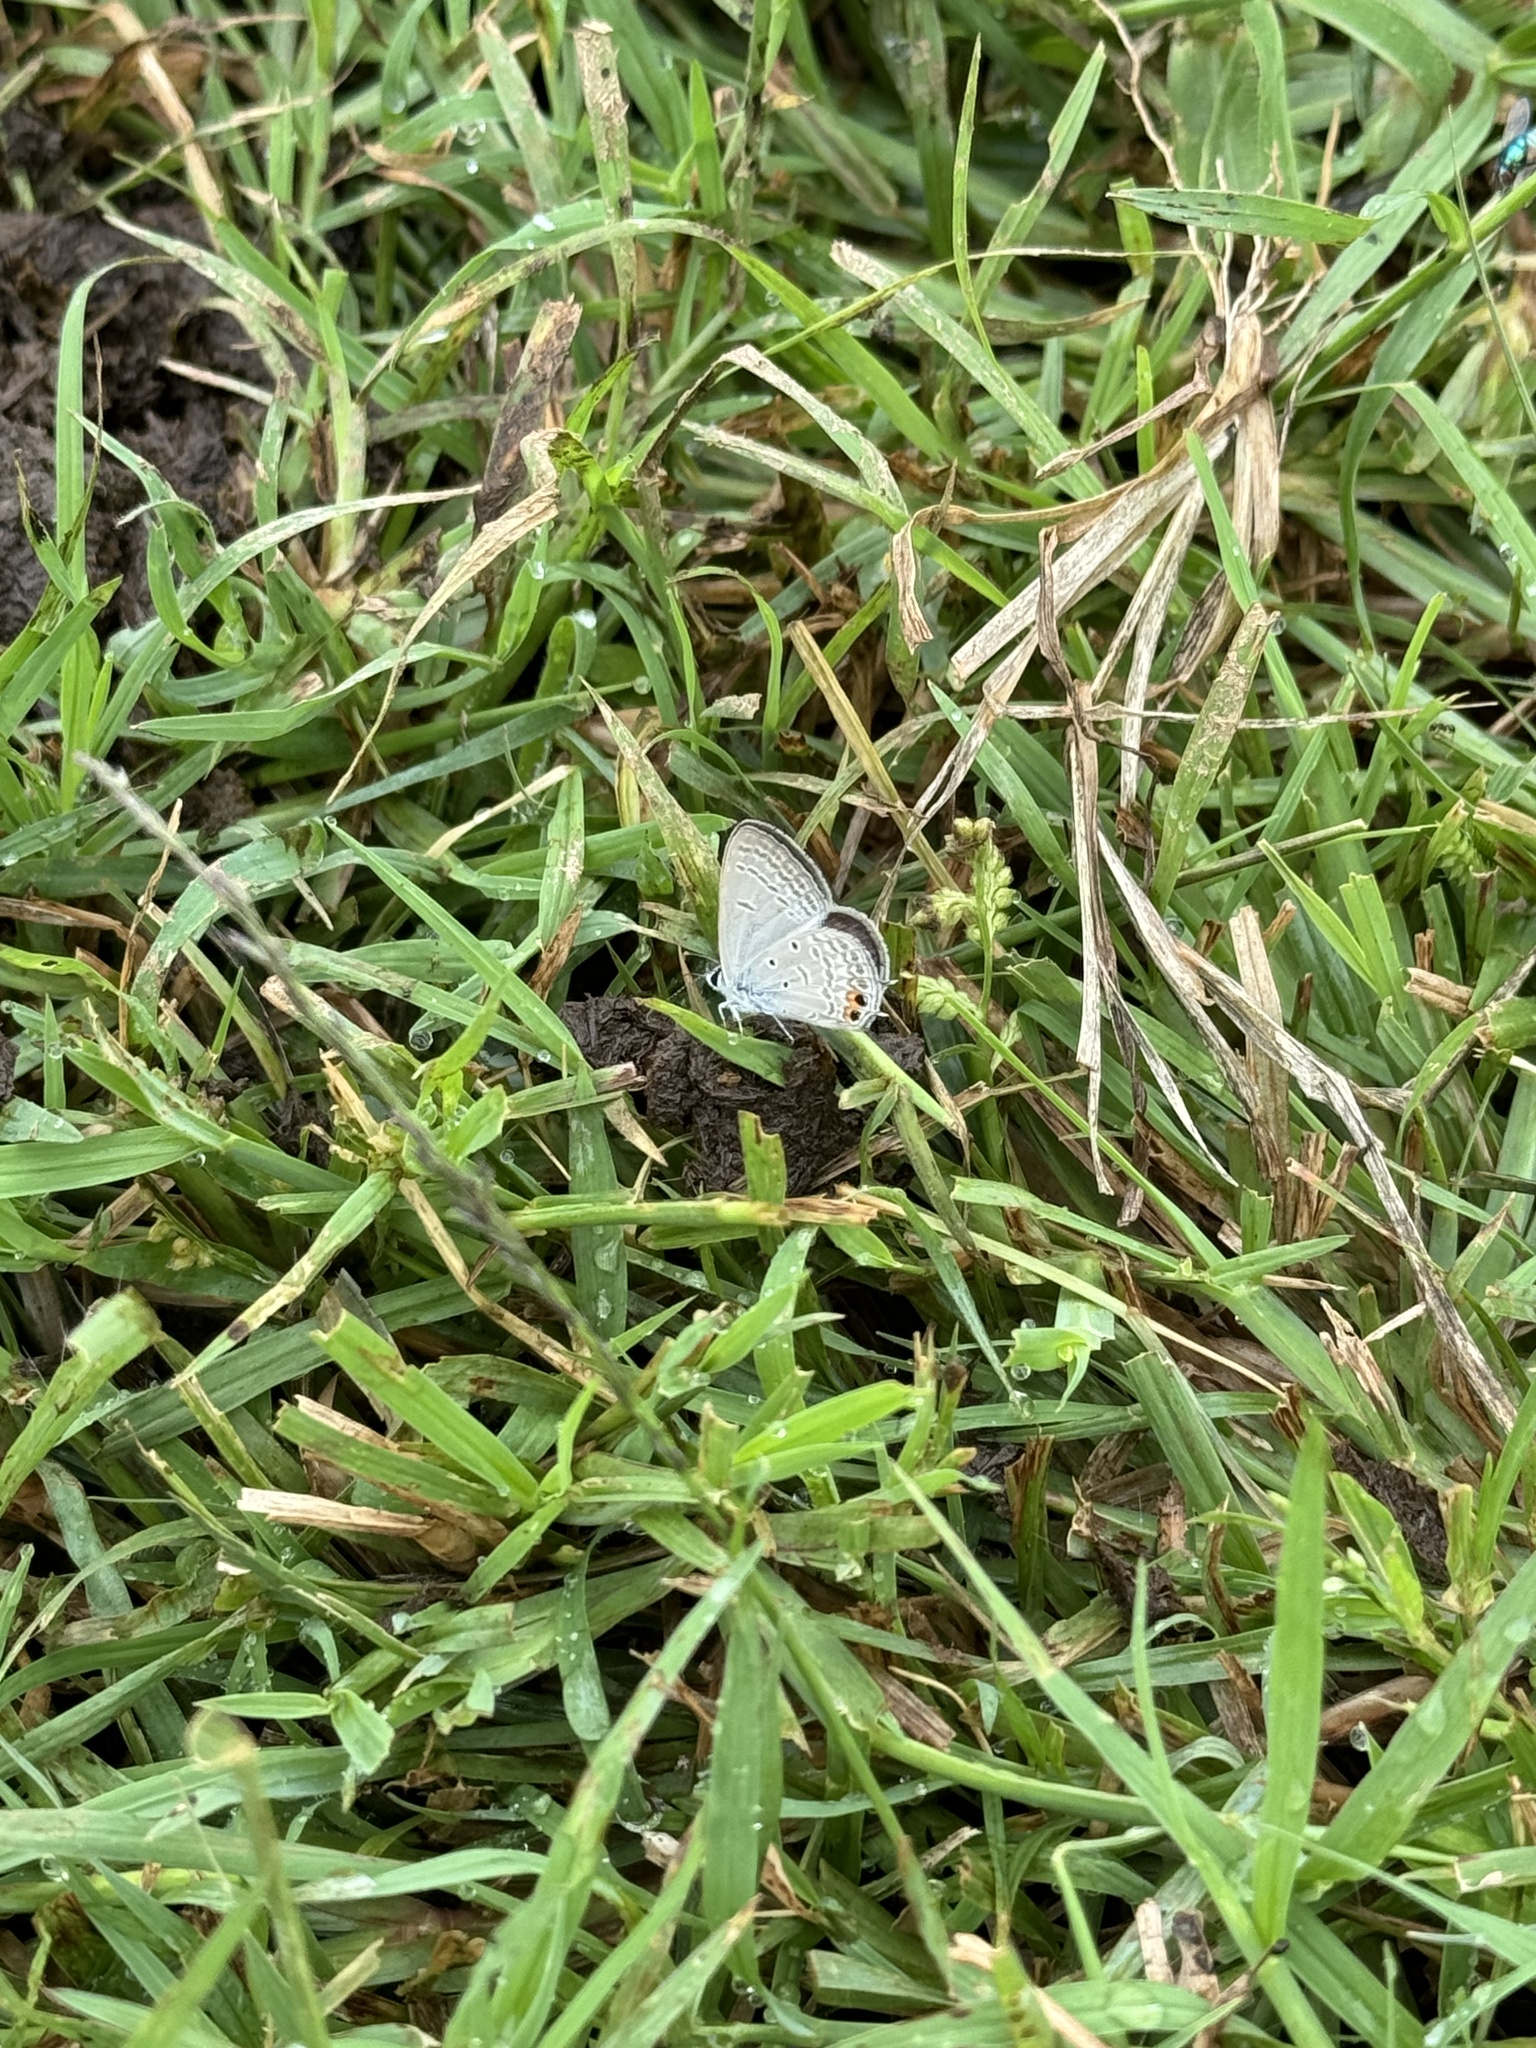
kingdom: Animalia
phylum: Arthropoda
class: Insecta
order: Lepidoptera
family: Lycaenidae
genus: Euchrysops
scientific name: Euchrysops cnejus
